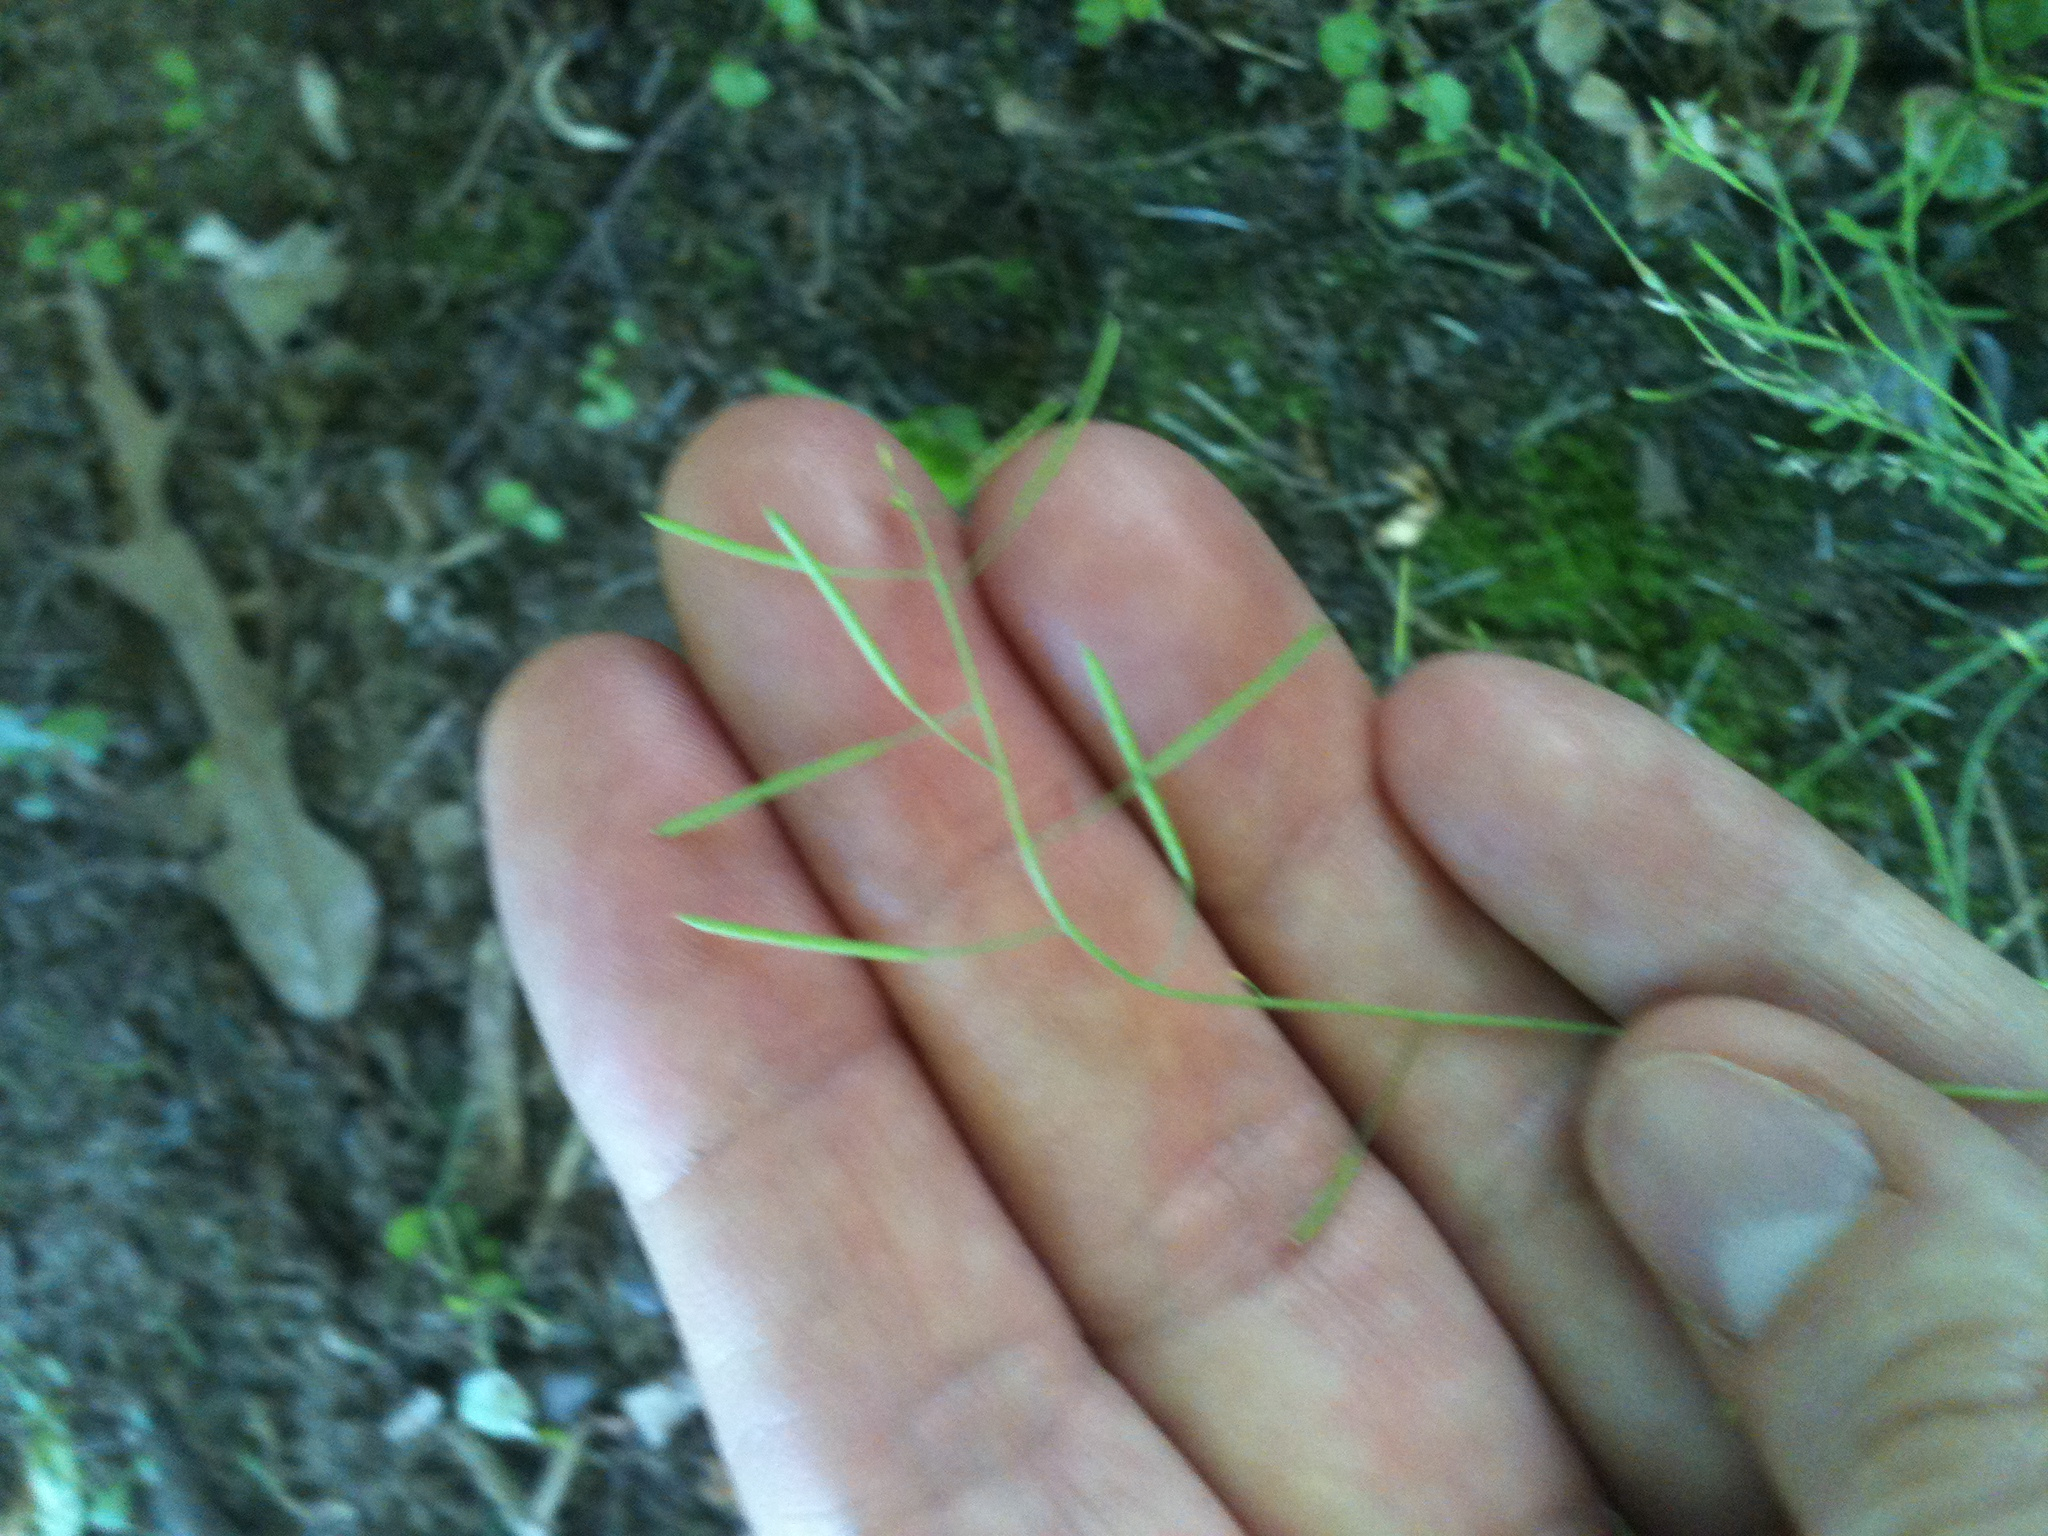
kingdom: Plantae
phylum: Tracheophyta
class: Magnoliopsida
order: Brassicales
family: Brassicaceae
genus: Arabidopsis
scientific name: Arabidopsis thaliana
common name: Thale cress
